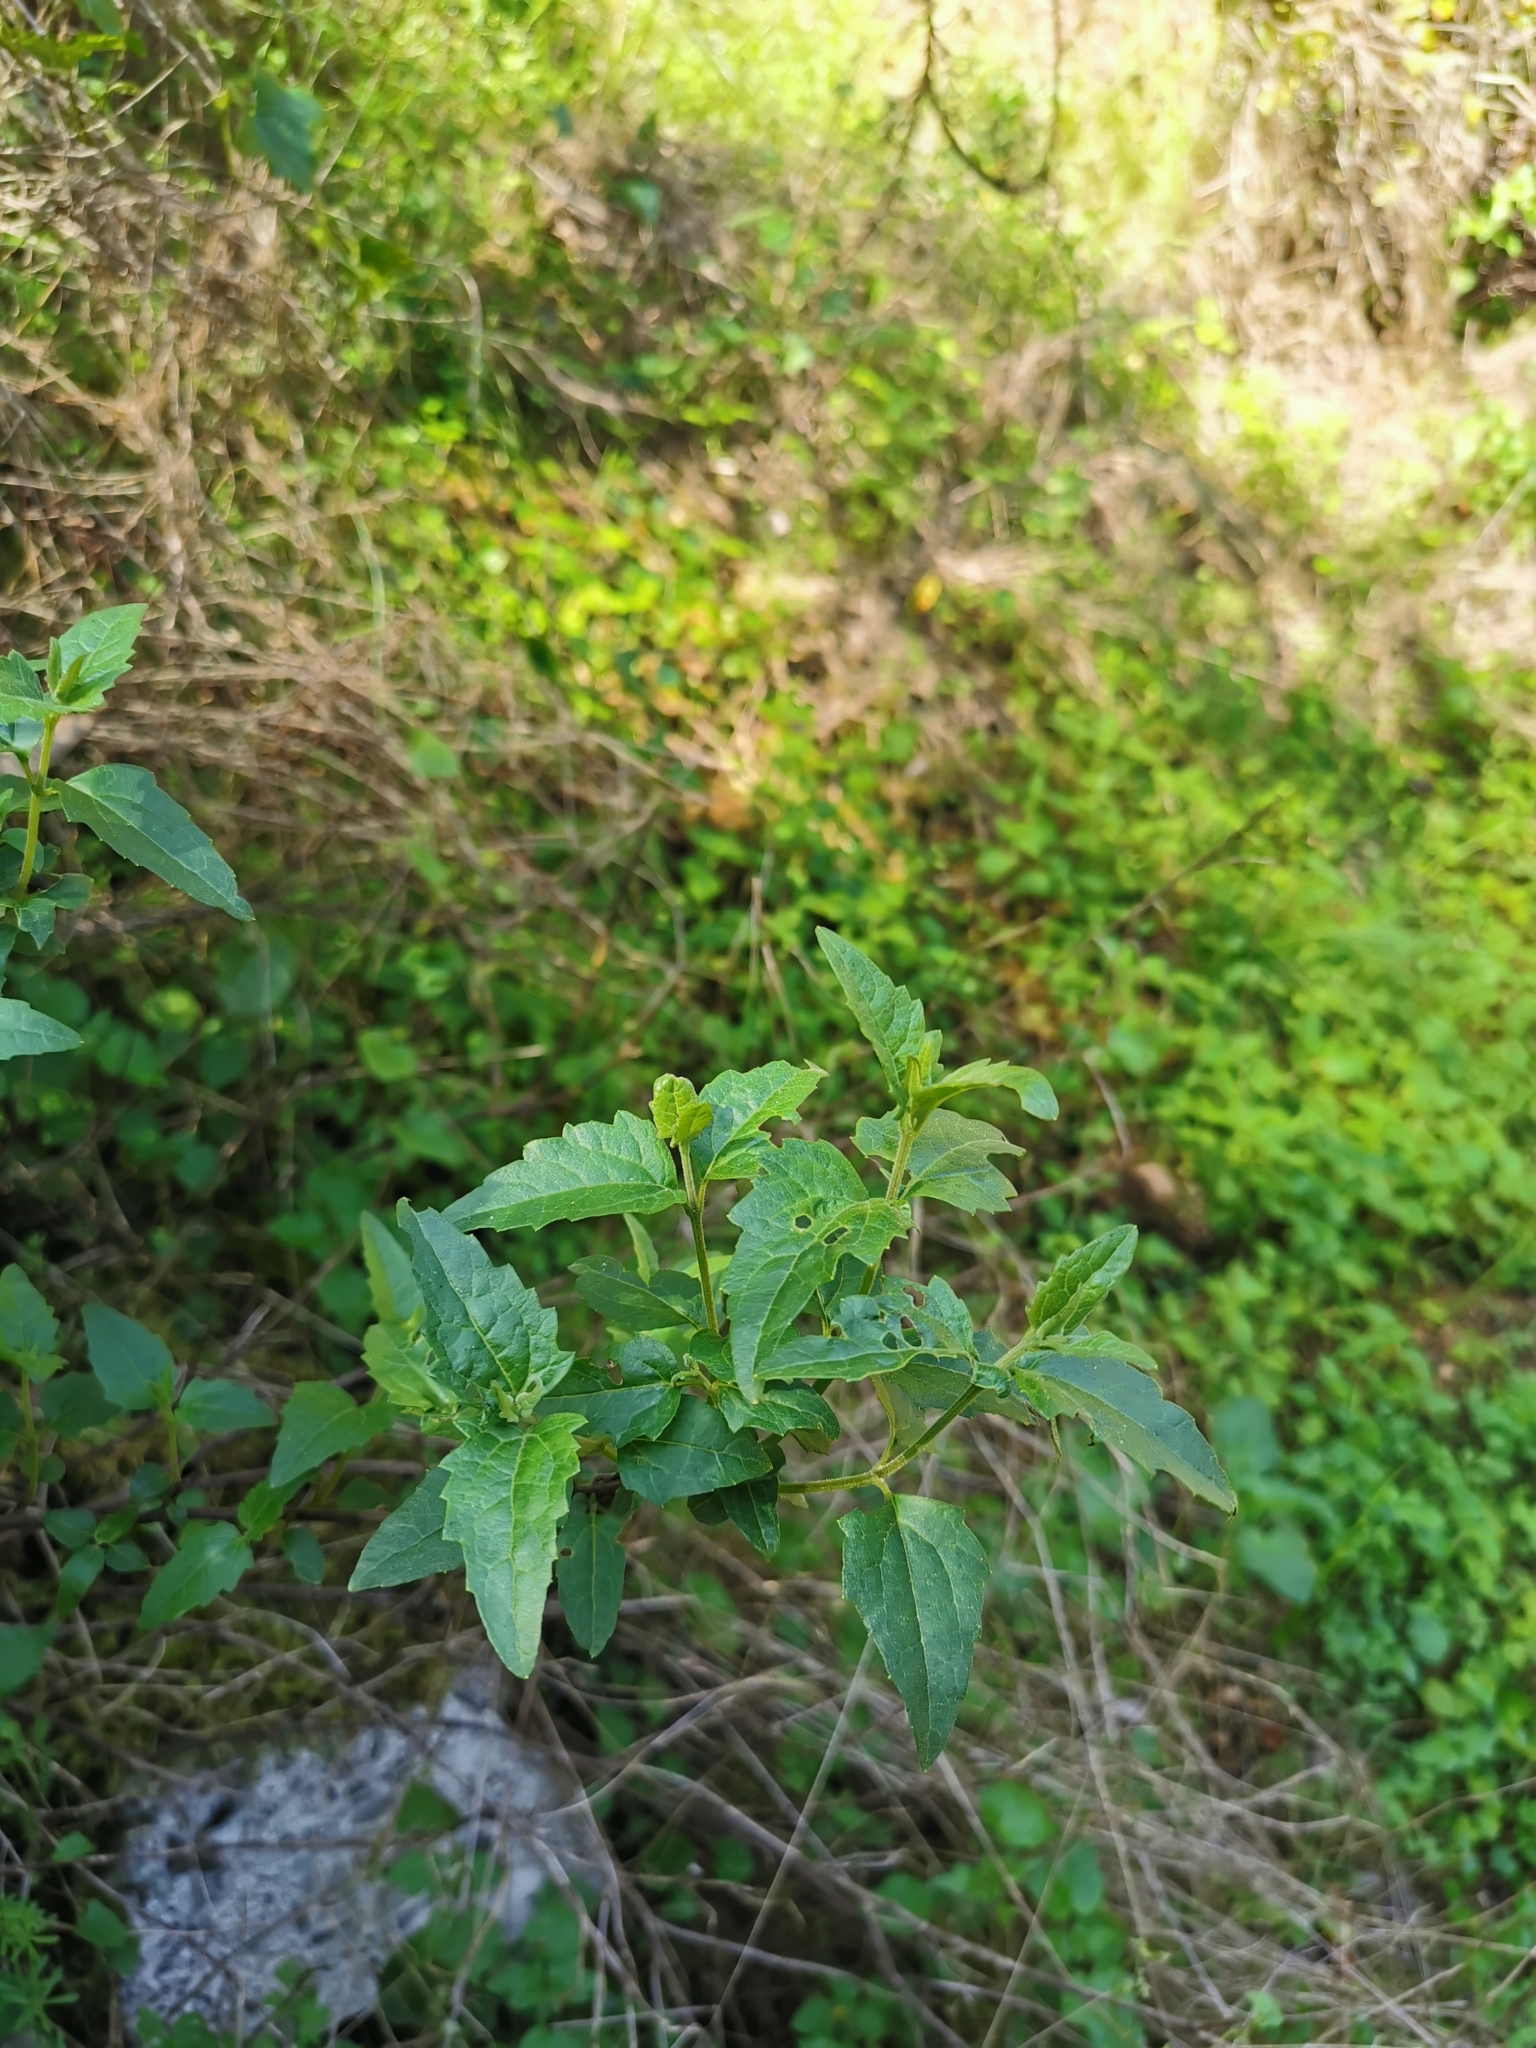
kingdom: Plantae
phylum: Tracheophyta
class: Magnoliopsida
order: Asterales
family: Asteraceae
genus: Podanthus
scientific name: Podanthus mitiqui
